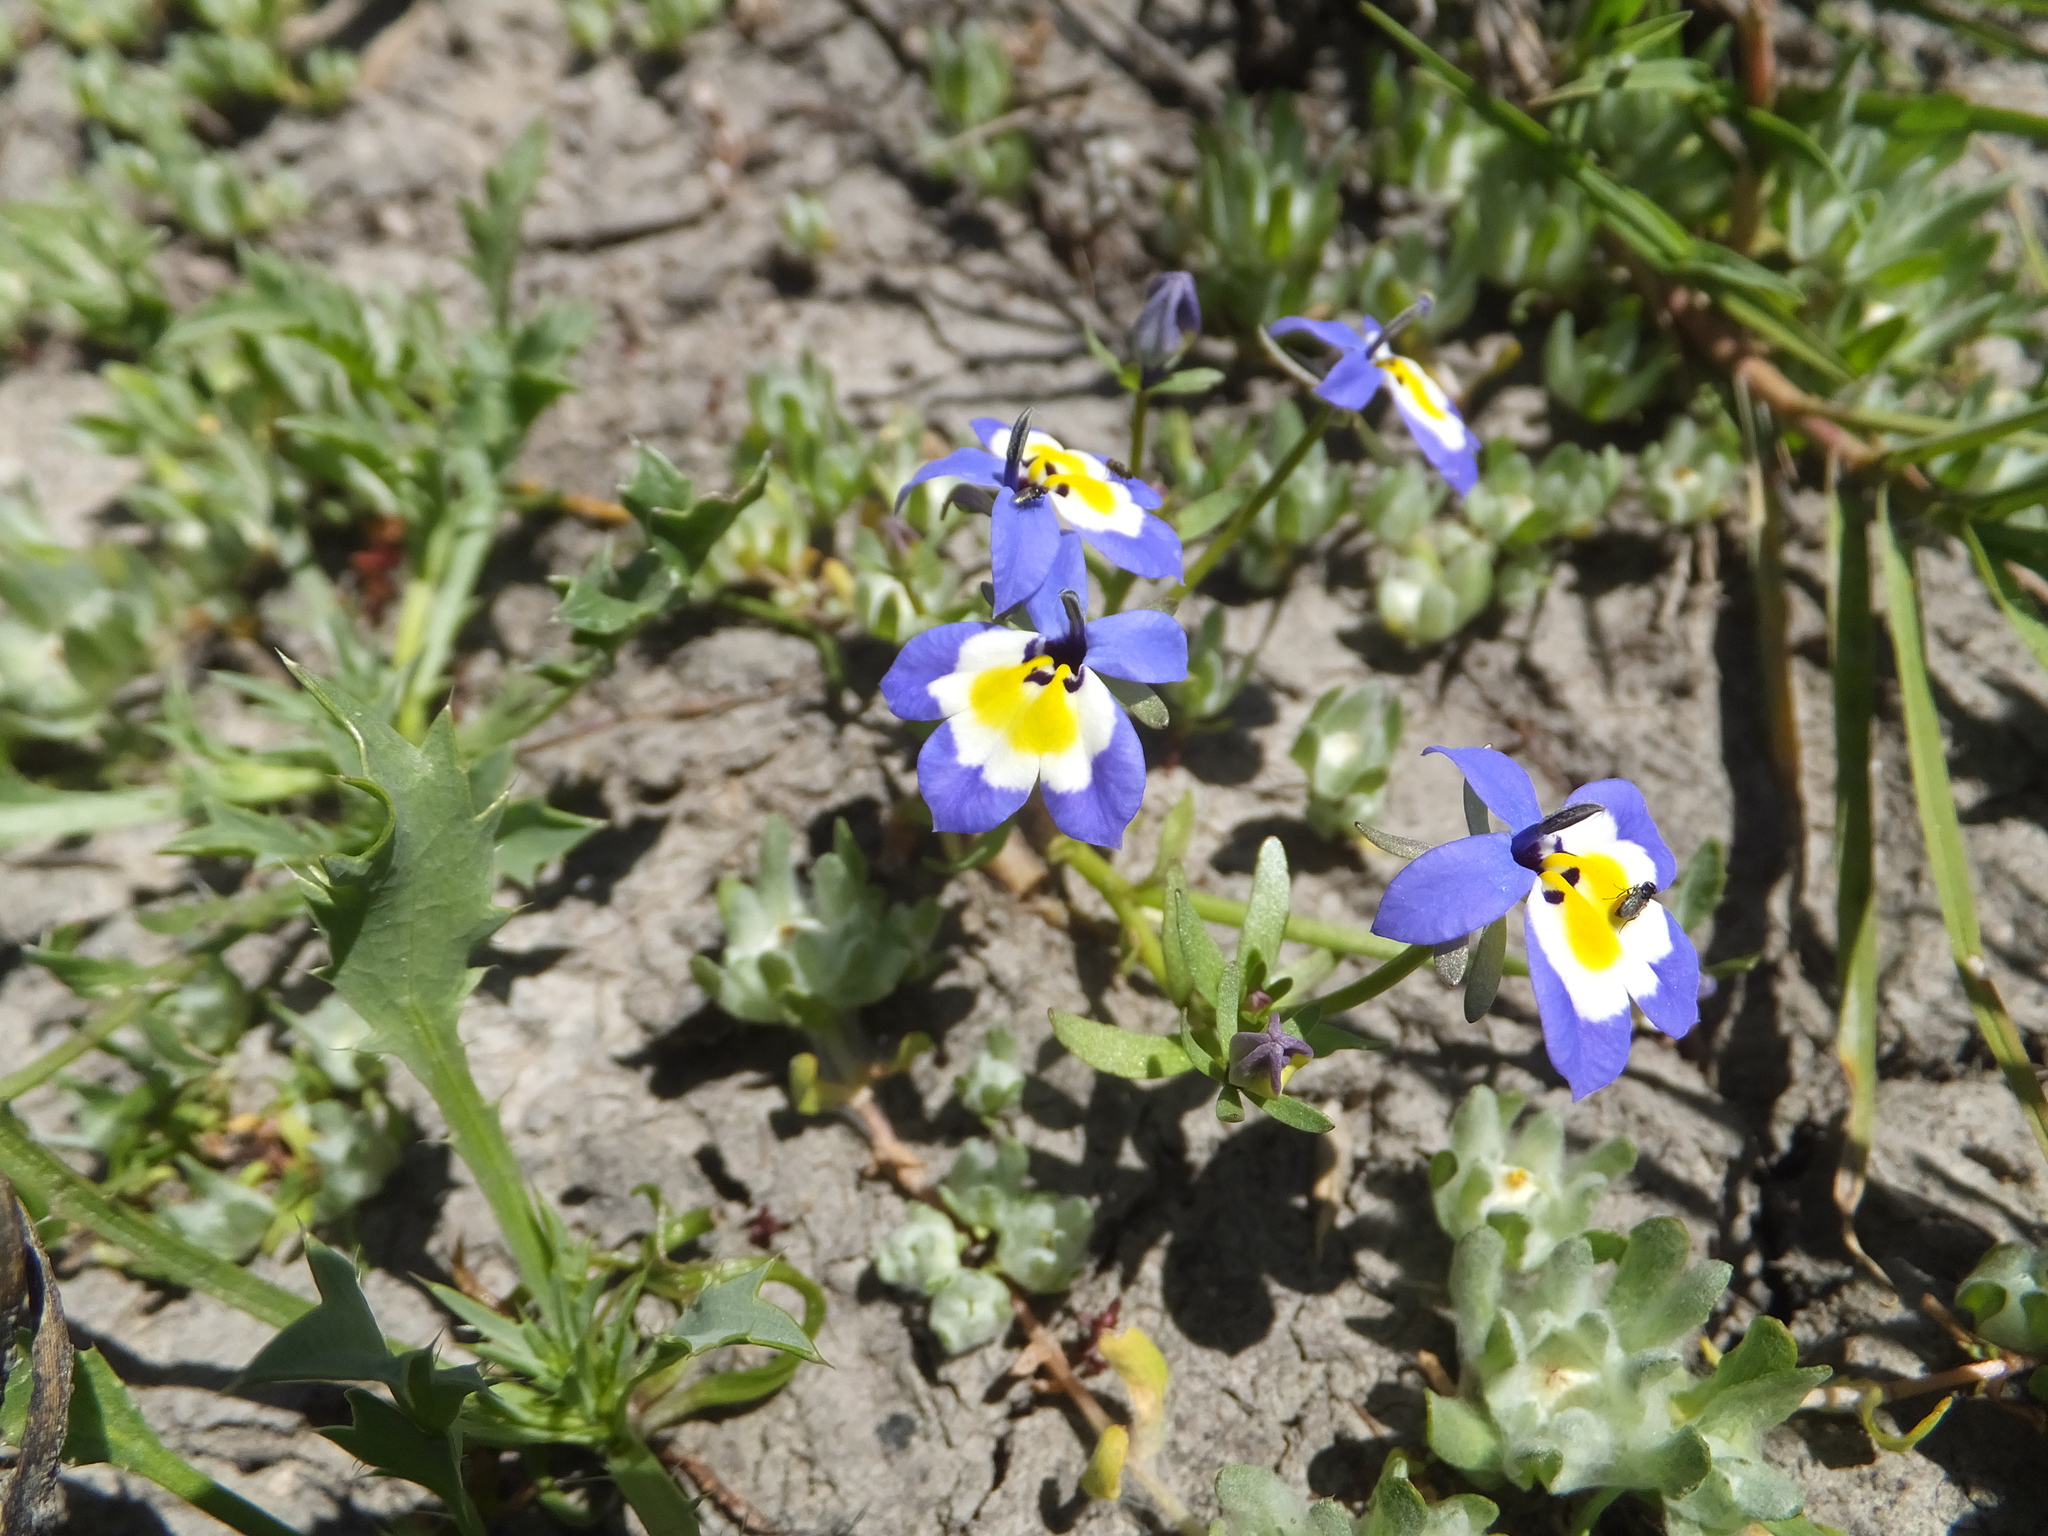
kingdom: Plantae
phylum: Tracheophyta
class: Magnoliopsida
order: Asterales
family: Campanulaceae
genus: Downingia
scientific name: Downingia pulchella
